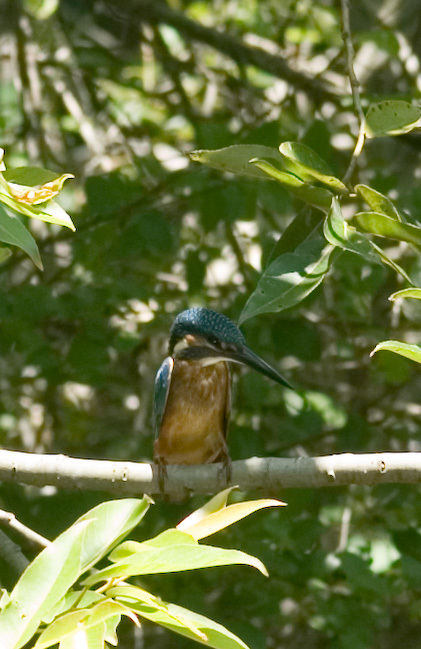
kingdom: Animalia
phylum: Chordata
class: Aves
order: Coraciiformes
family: Alcedinidae
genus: Alcedo
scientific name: Alcedo atthis
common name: Common kingfisher
